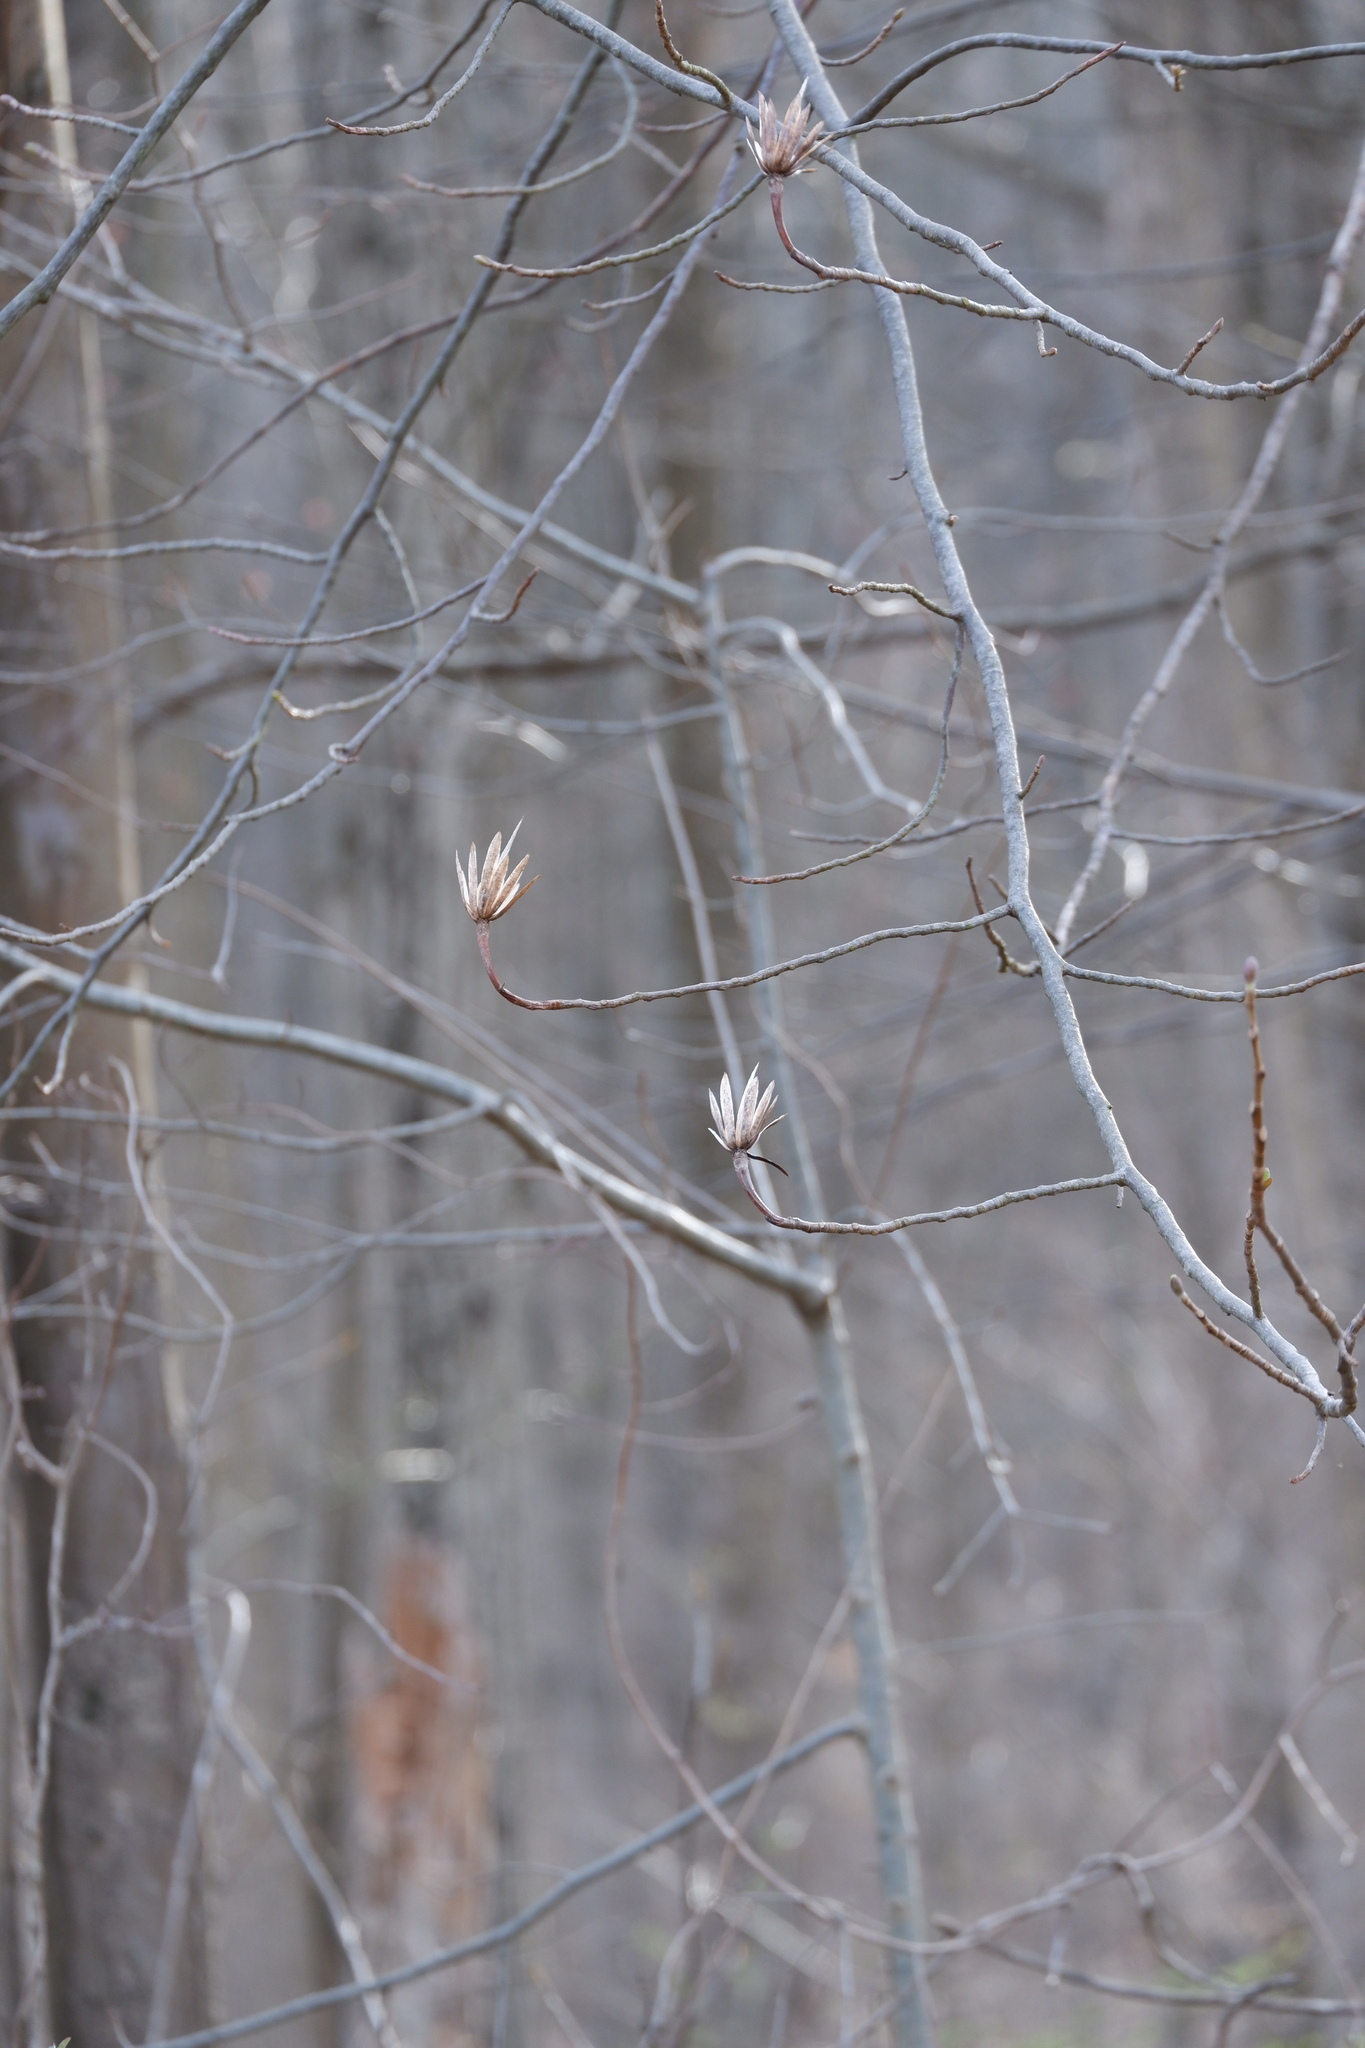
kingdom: Plantae
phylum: Tracheophyta
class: Magnoliopsida
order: Magnoliales
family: Magnoliaceae
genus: Liriodendron
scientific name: Liriodendron tulipifera
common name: Tulip tree
